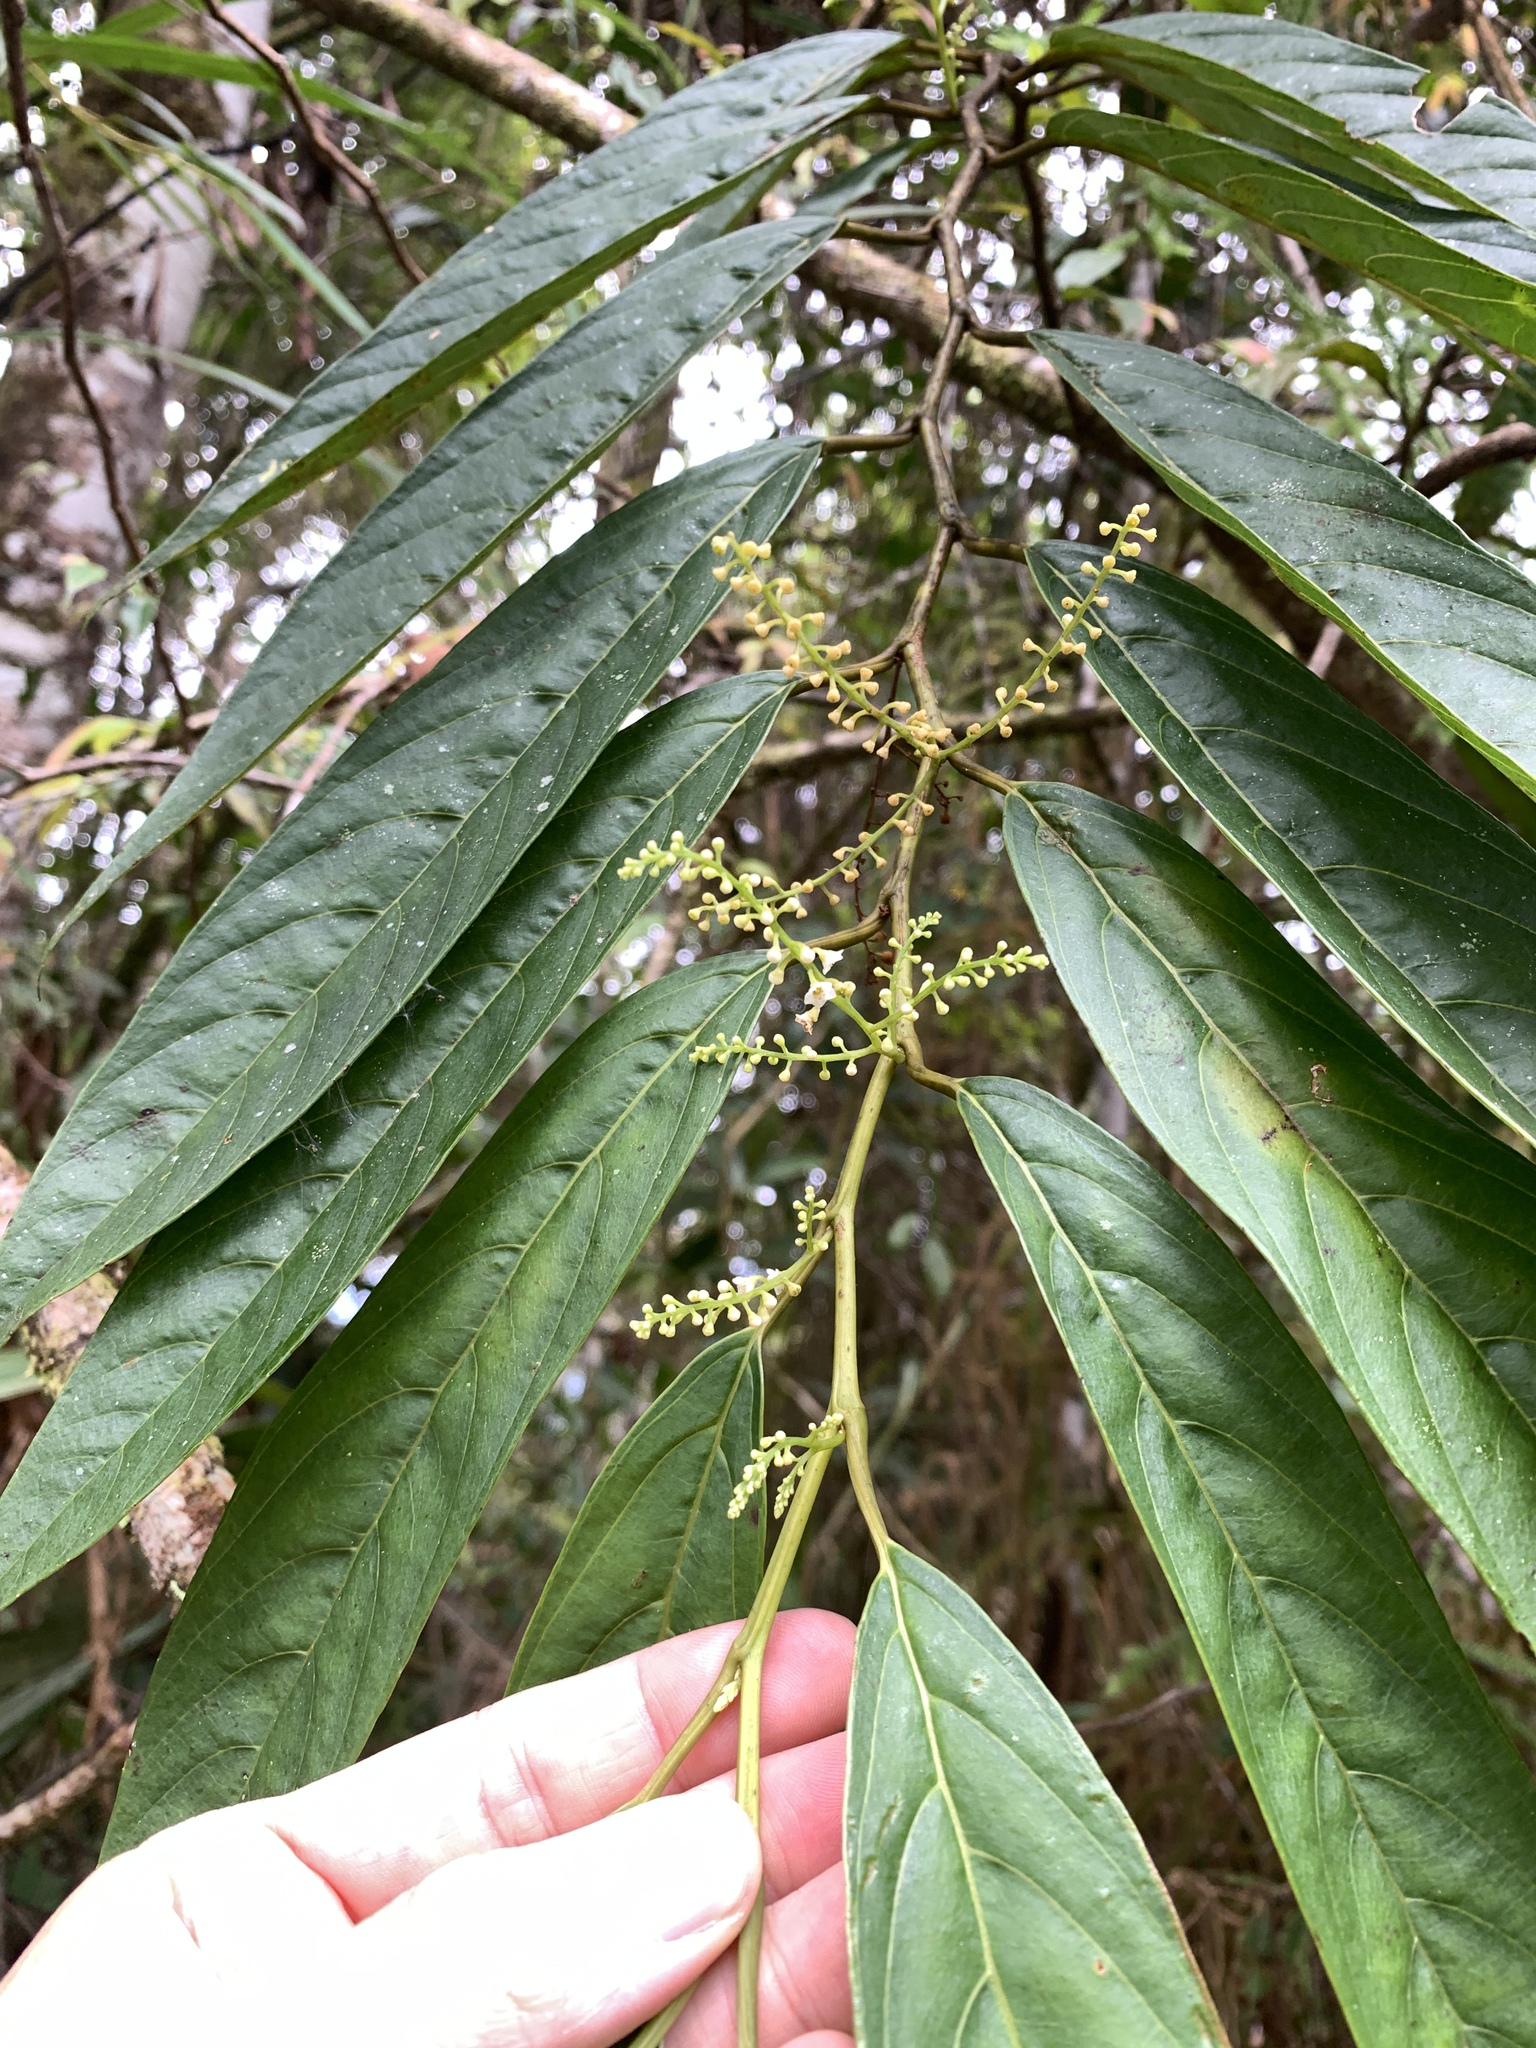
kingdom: Animalia
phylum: Chordata
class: Aves
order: Passeriformes
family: Rhipiduridae
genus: Rhipidura
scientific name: Rhipidura albicollis
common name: White-throated fantail
